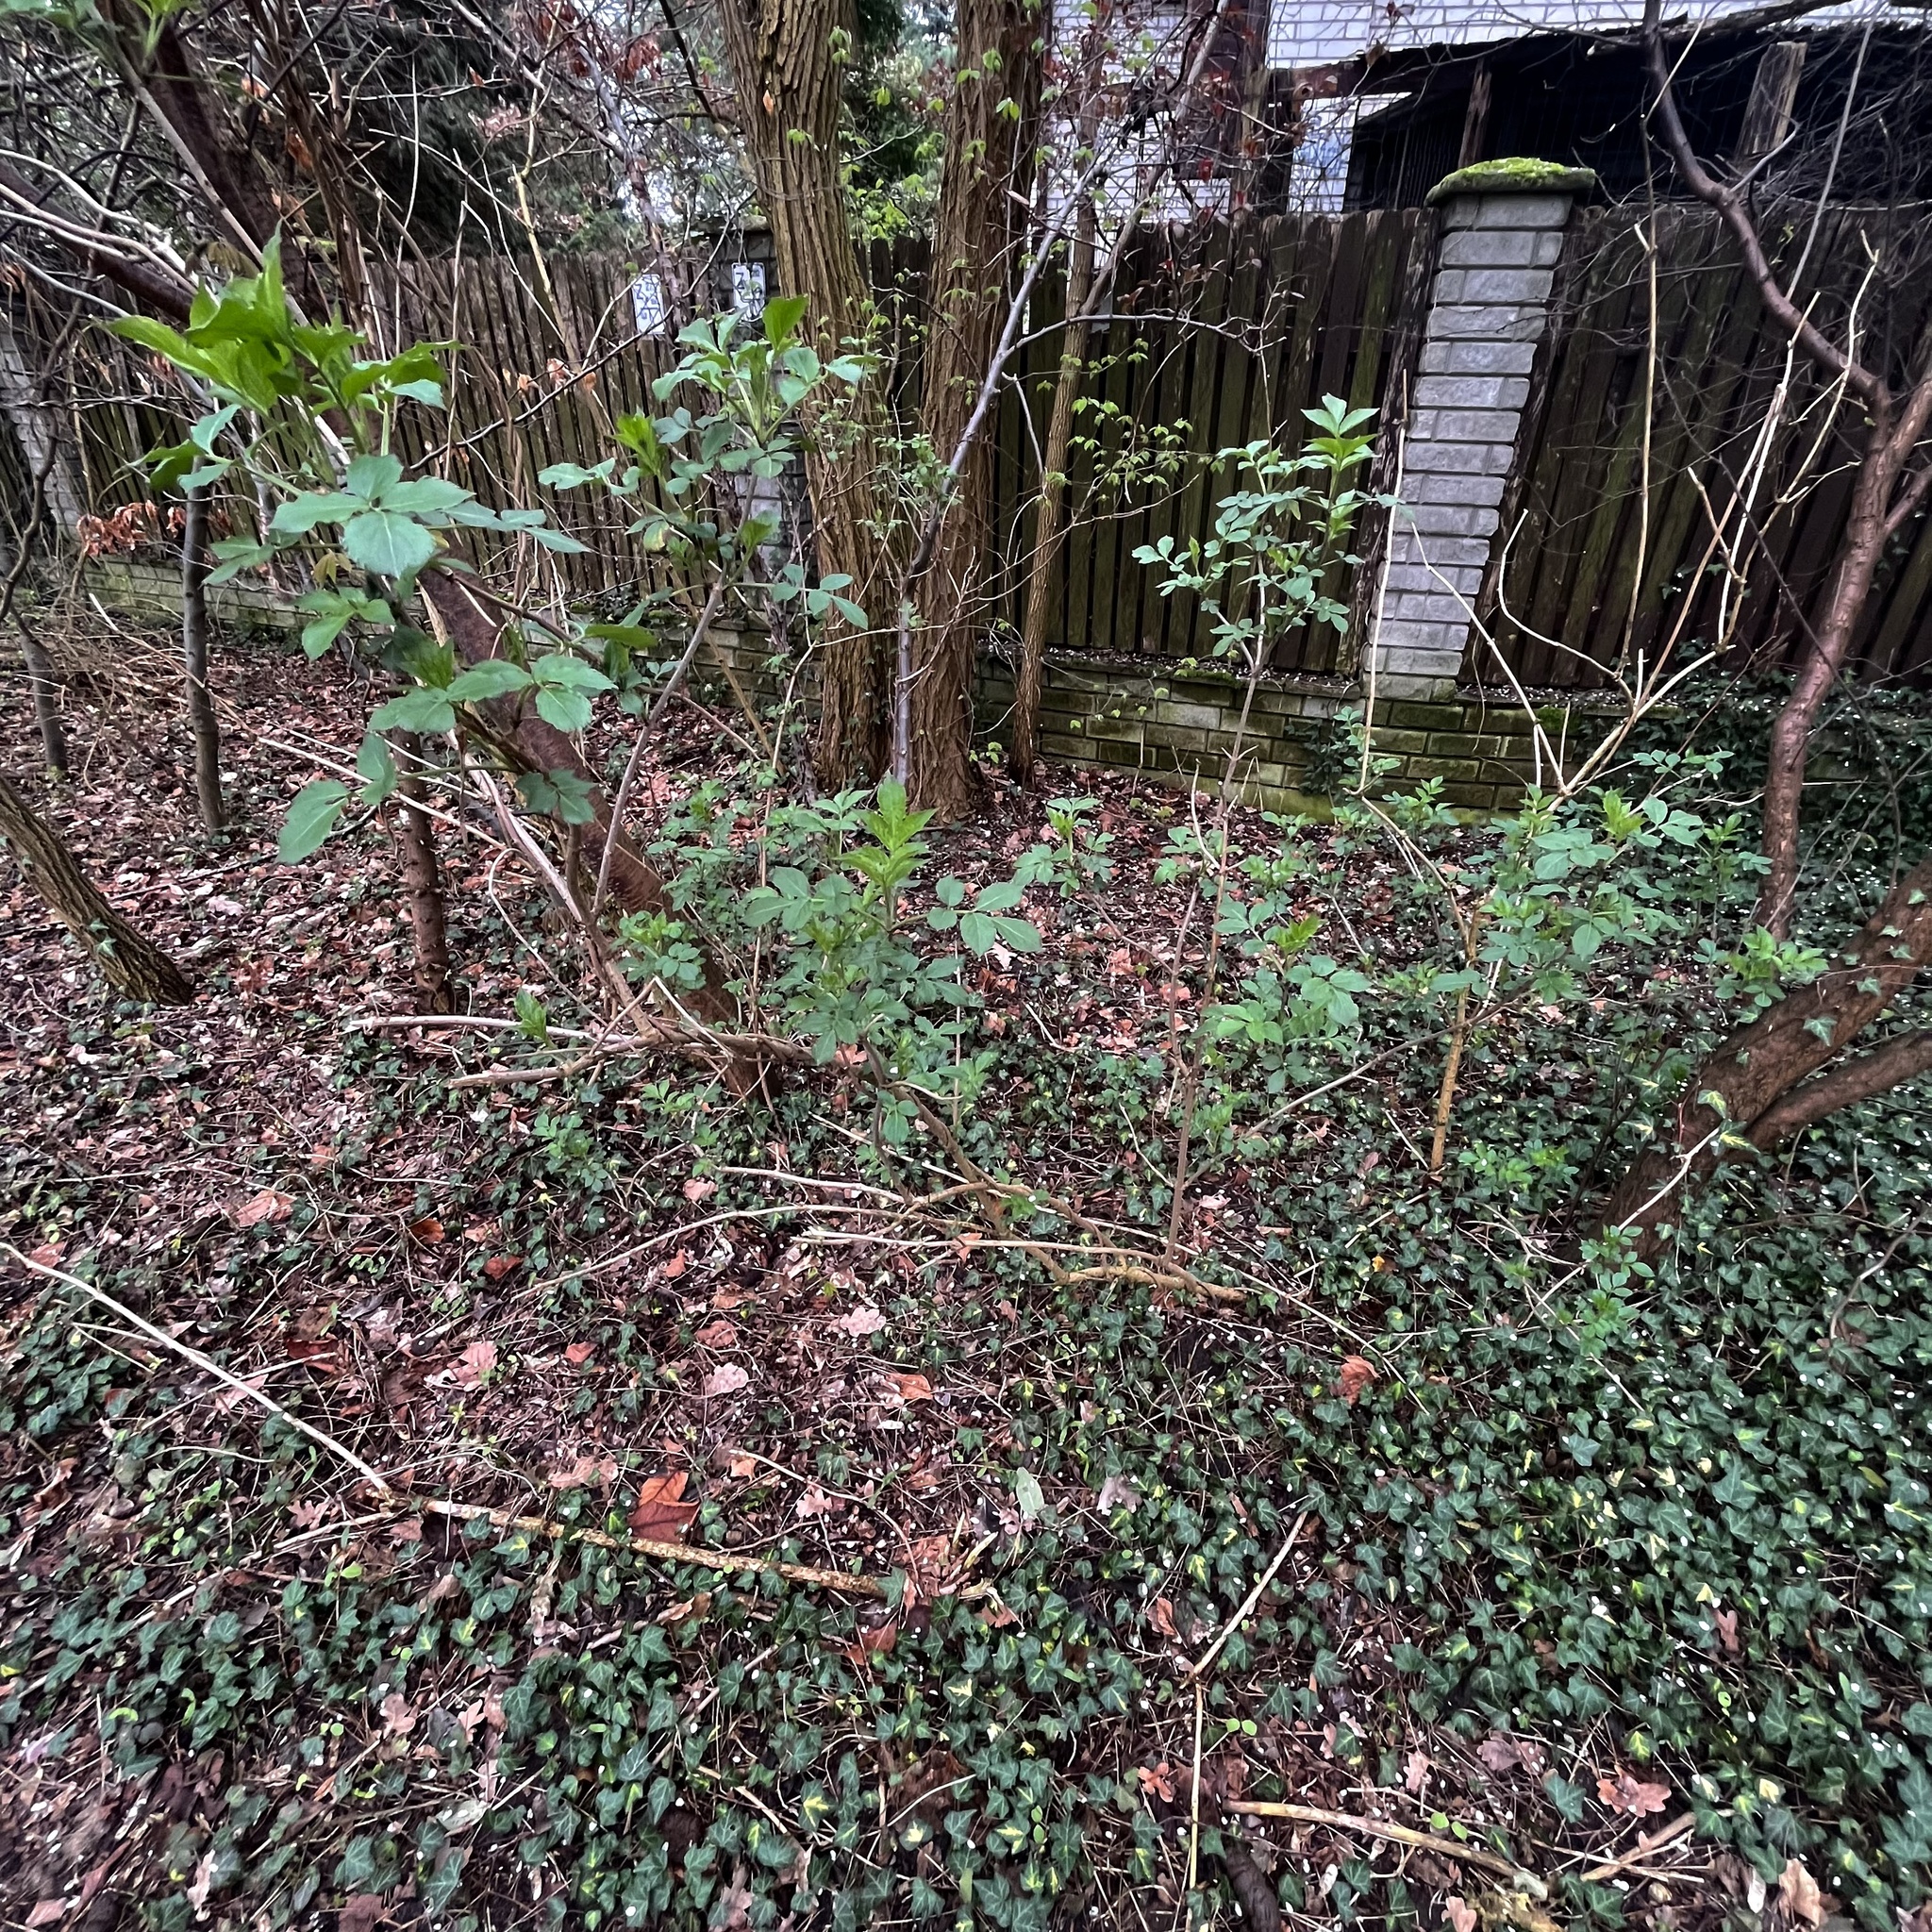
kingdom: Plantae
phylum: Tracheophyta
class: Magnoliopsida
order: Dipsacales
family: Viburnaceae
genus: Sambucus
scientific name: Sambucus nigra
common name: Elder
